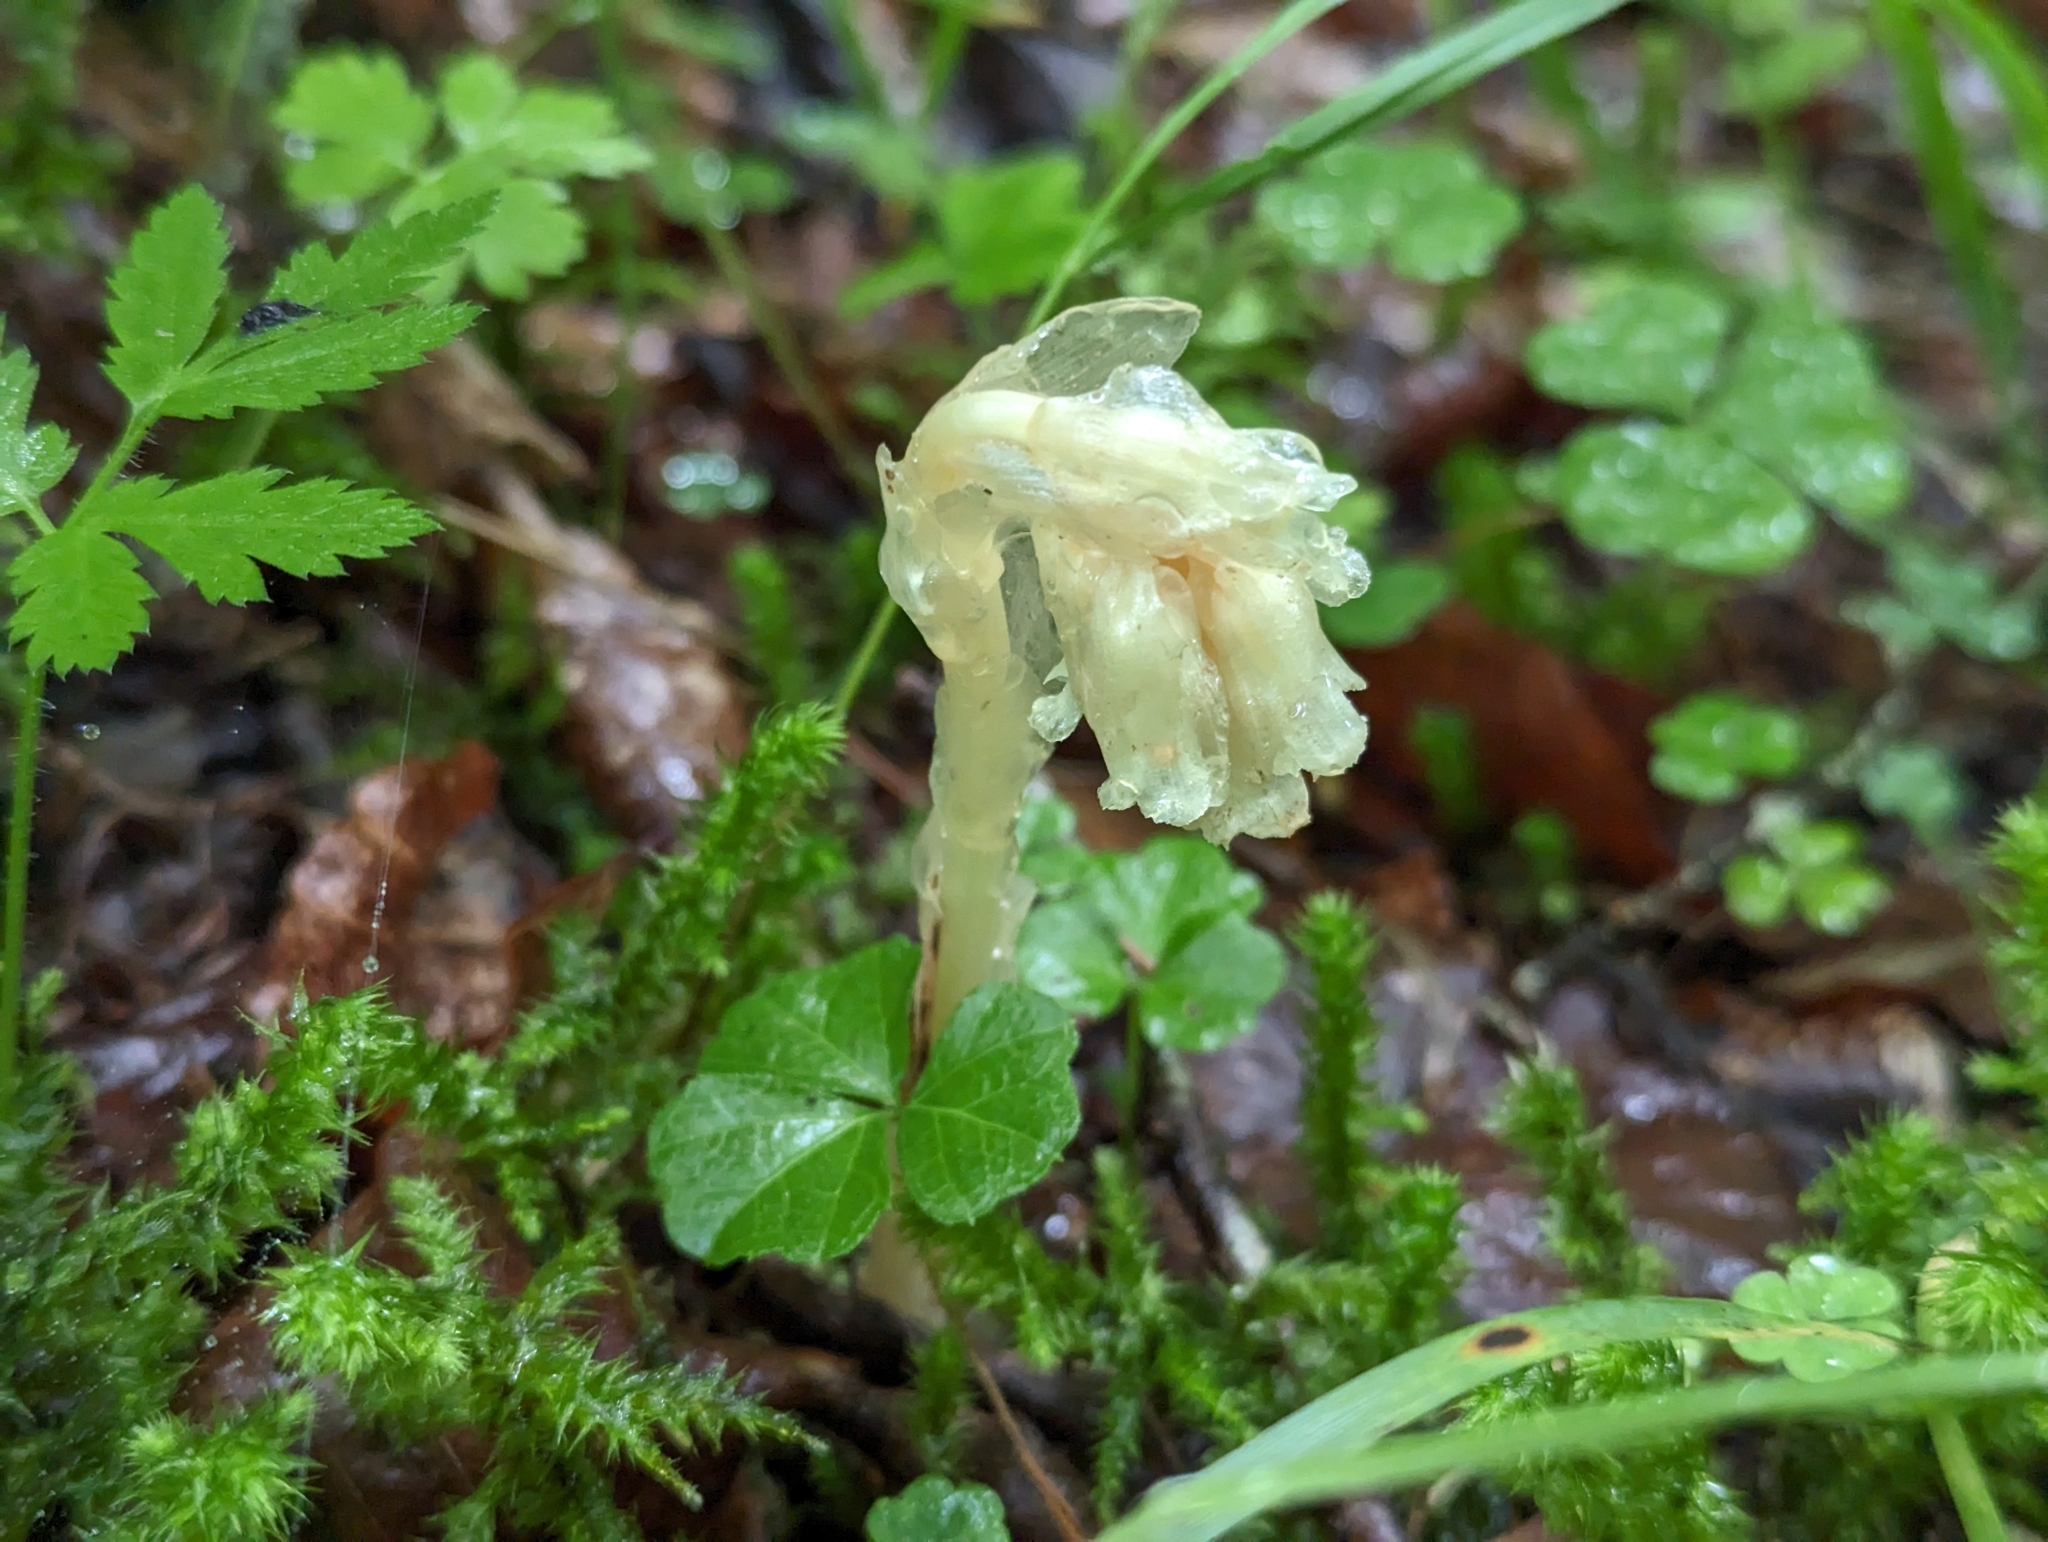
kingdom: Plantae
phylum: Tracheophyta
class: Magnoliopsida
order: Ericales
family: Ericaceae
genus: Hypopitys
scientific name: Hypopitys monotropa
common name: Yellow bird's-nest
